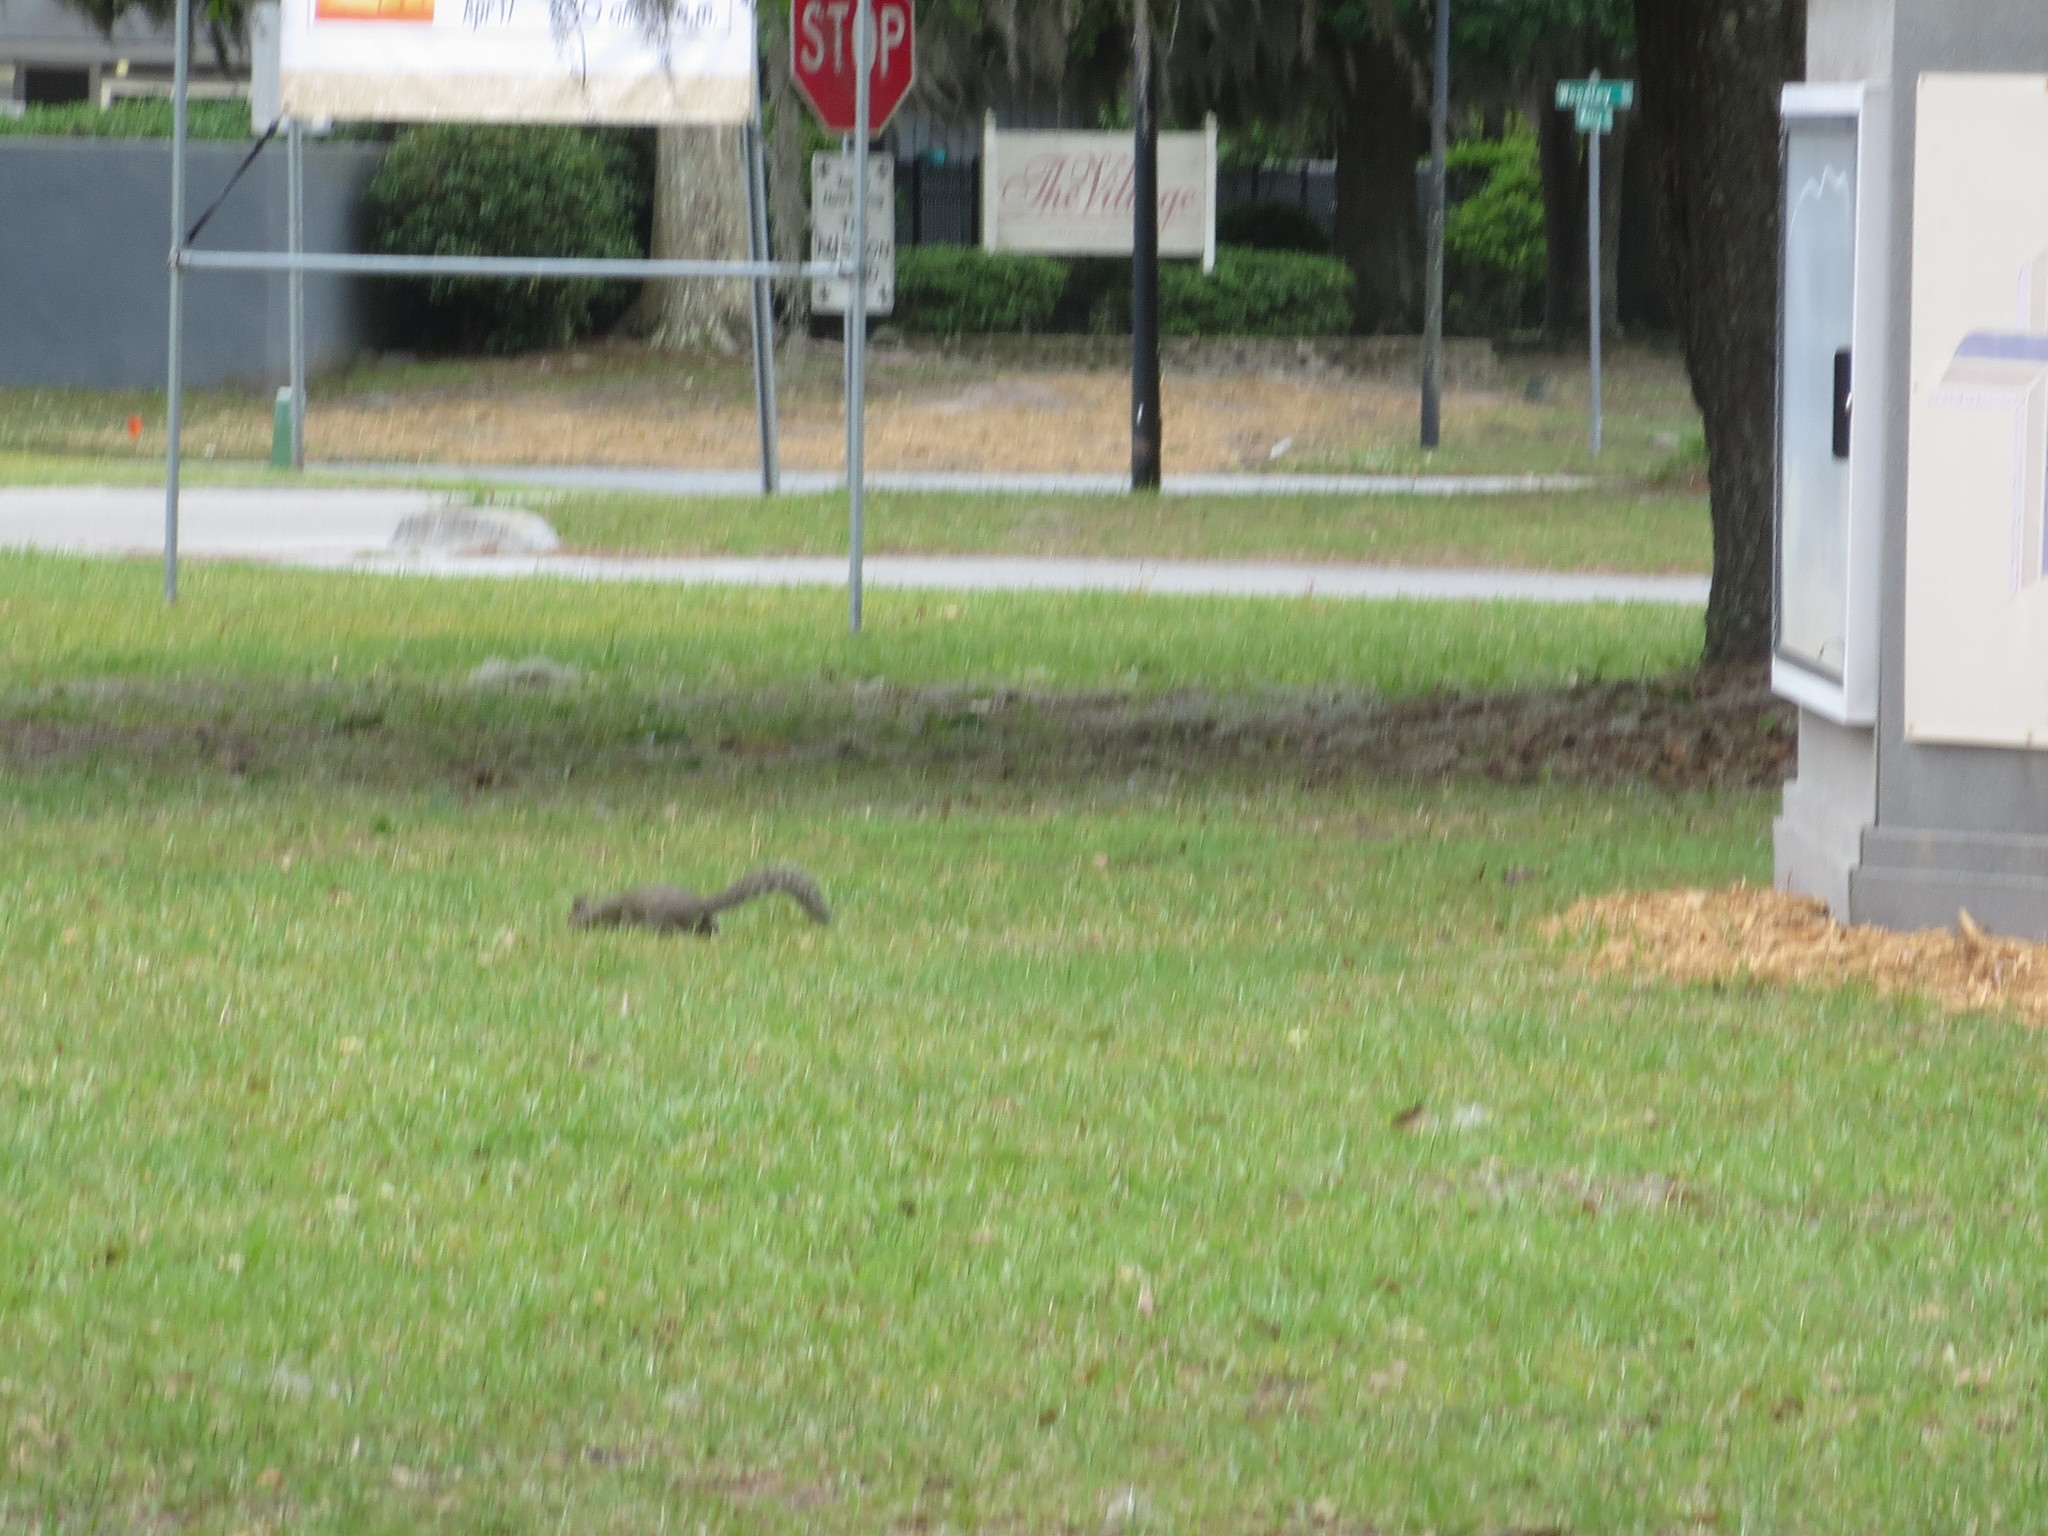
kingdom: Animalia
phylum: Chordata
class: Mammalia
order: Rodentia
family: Sciuridae
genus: Sciurus
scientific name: Sciurus carolinensis
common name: Eastern gray squirrel
